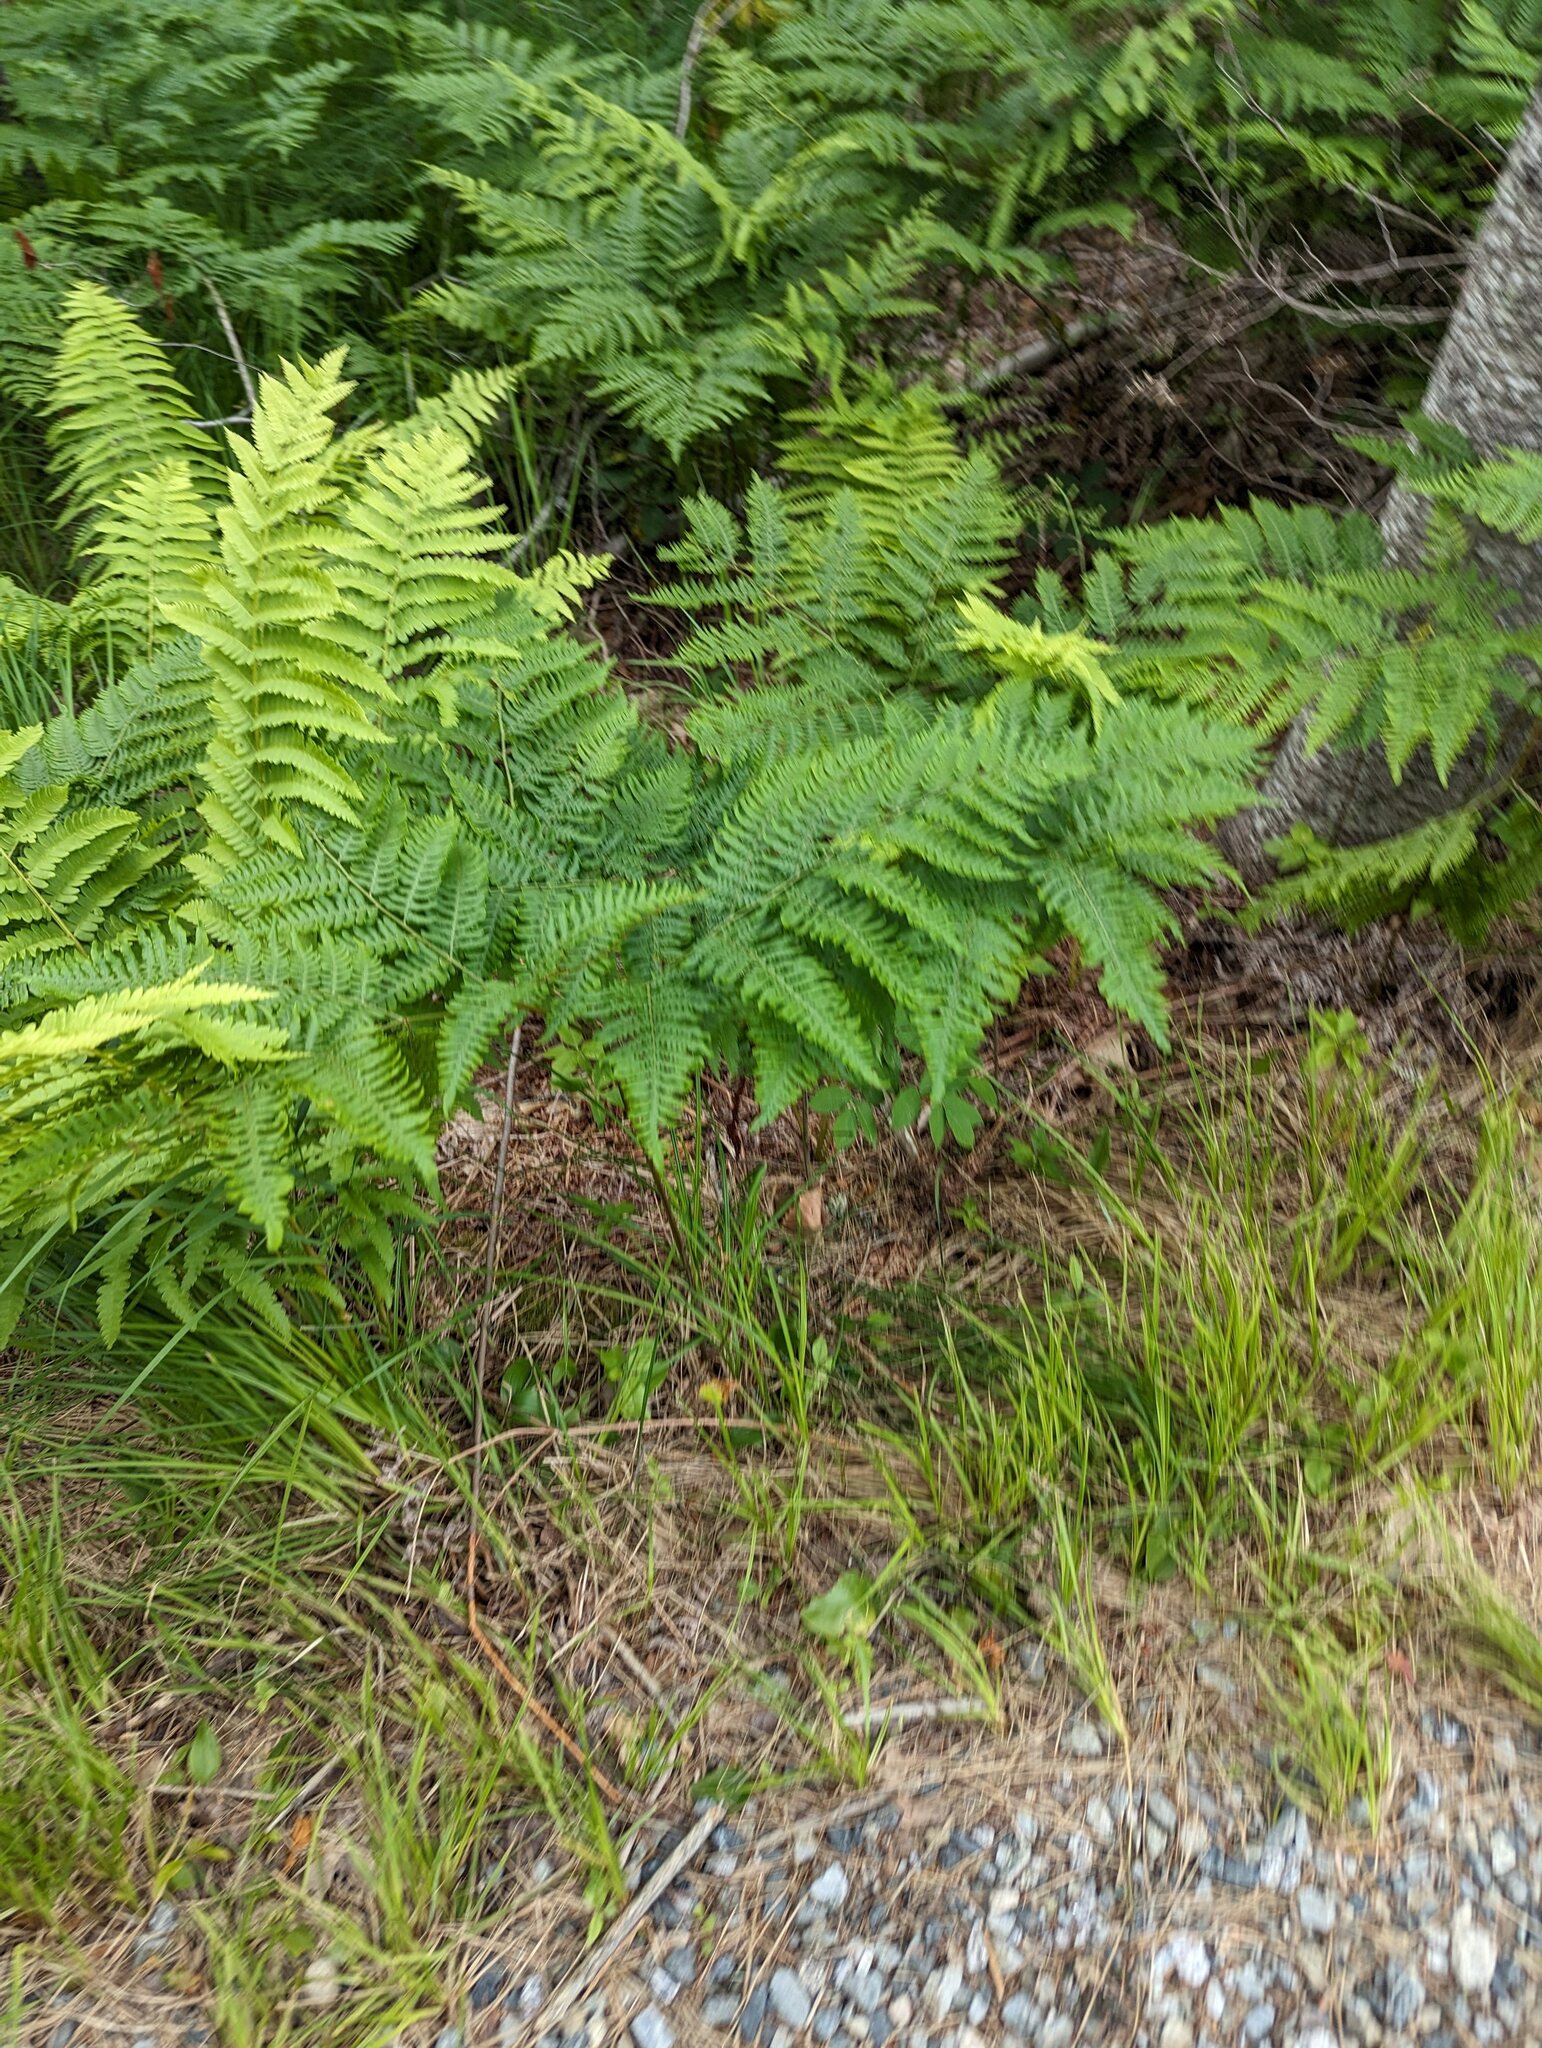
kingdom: Plantae
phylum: Tracheophyta
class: Polypodiopsida
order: Polypodiales
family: Dennstaedtiaceae
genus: Pteridium
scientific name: Pteridium aquilinum
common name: Bracken
